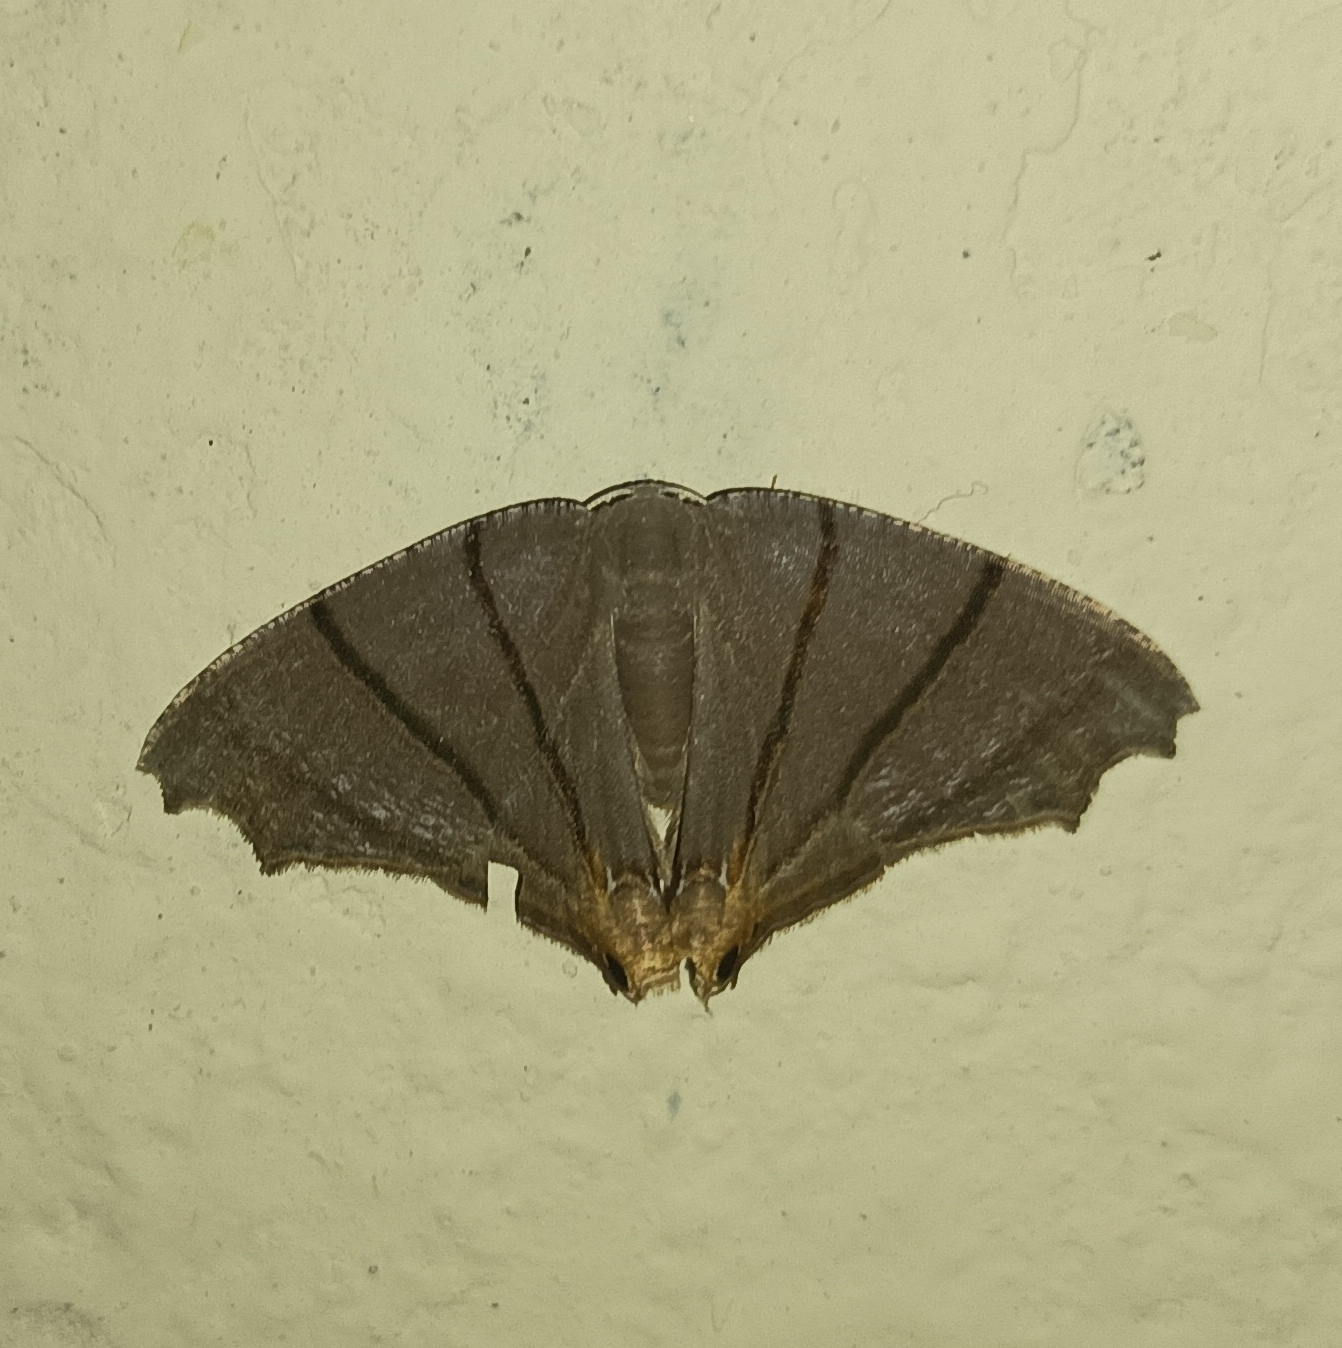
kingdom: Animalia
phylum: Arthropoda
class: Insecta
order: Lepidoptera
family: Uraniidae
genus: Orudiza
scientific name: Orudiza protheclaria
